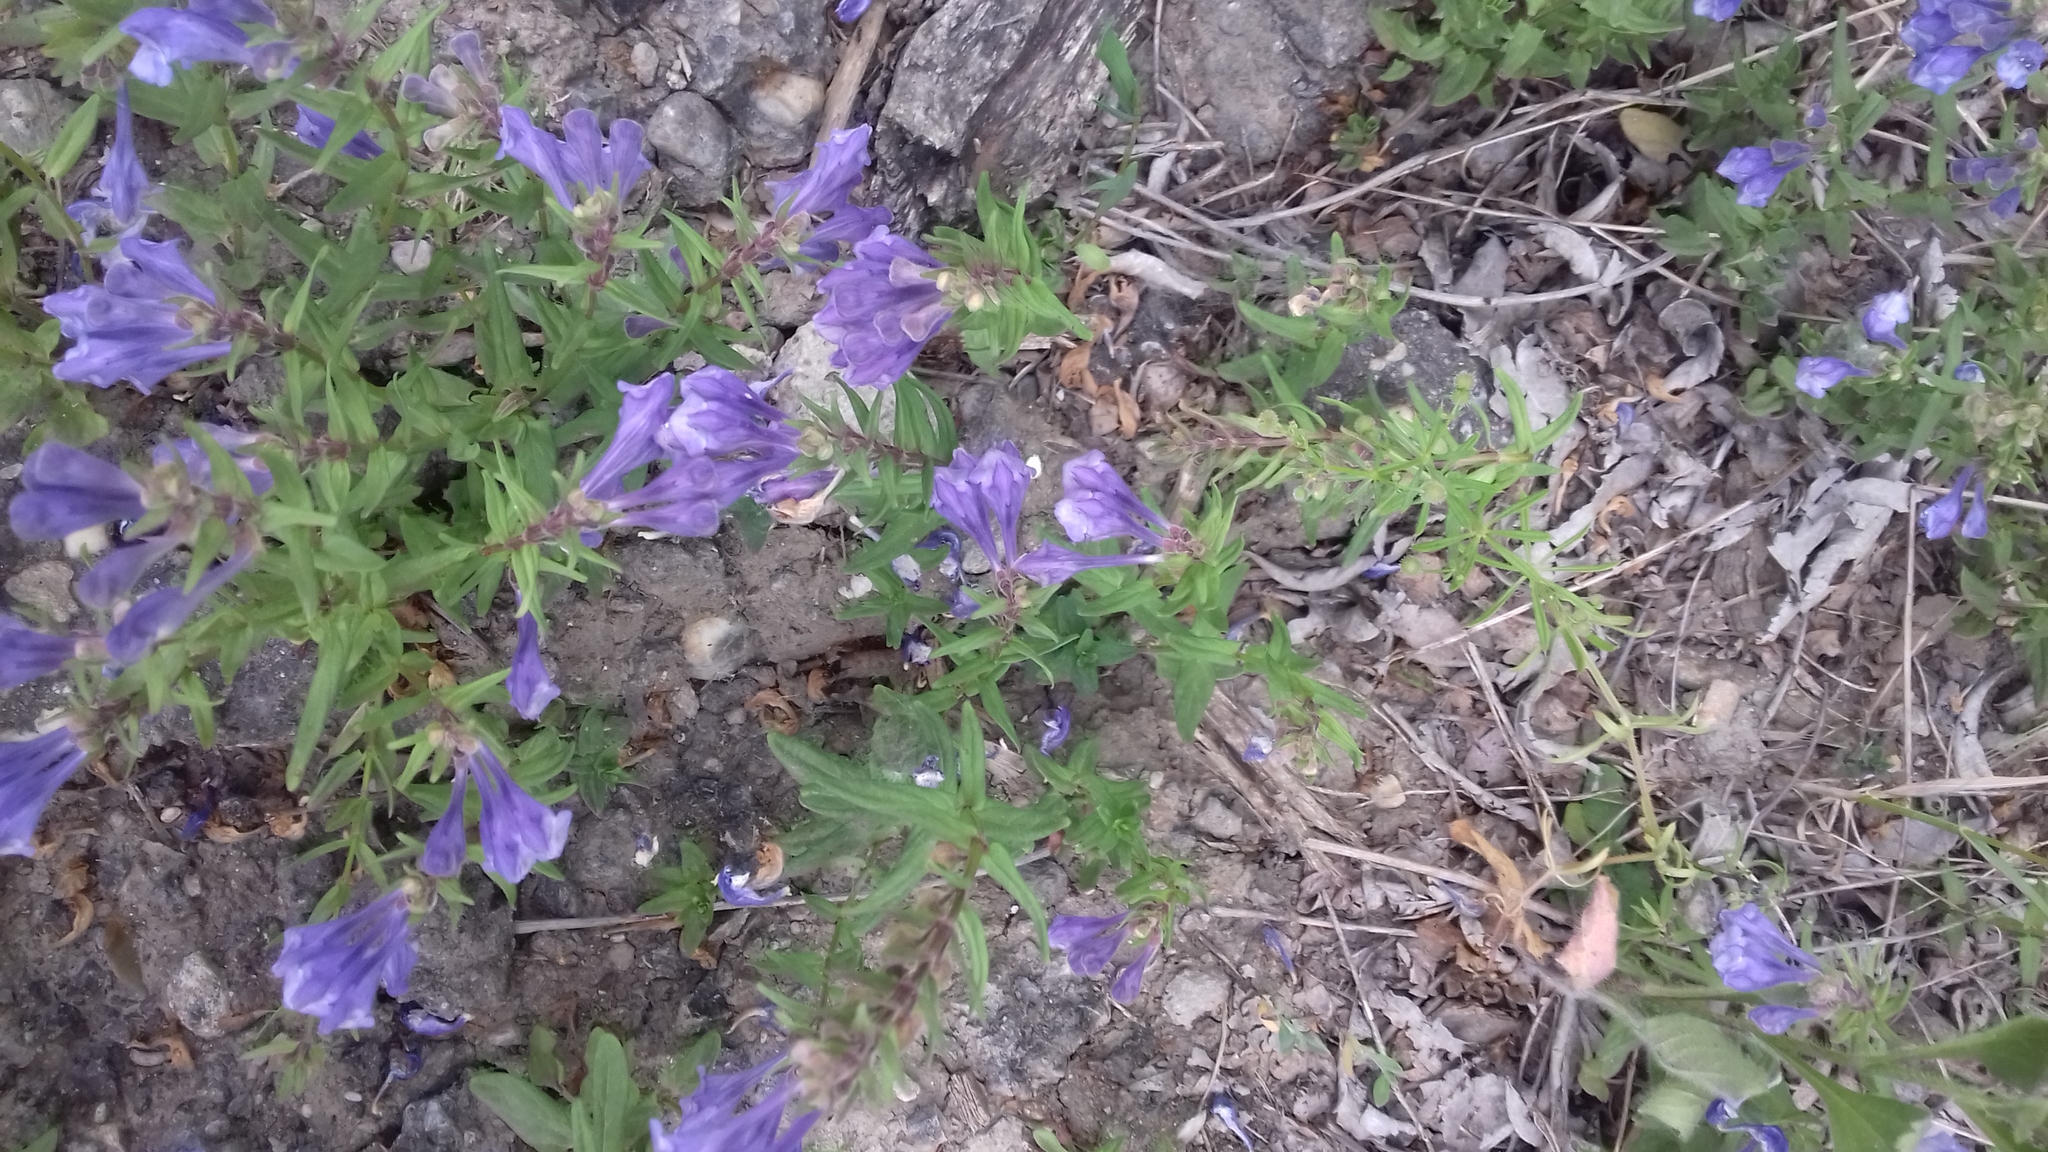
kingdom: Plantae
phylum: Tracheophyta
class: Magnoliopsida
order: Lamiales
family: Lamiaceae
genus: Scutellaria
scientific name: Scutellaria hastifolia
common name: Norfolk skullcap
